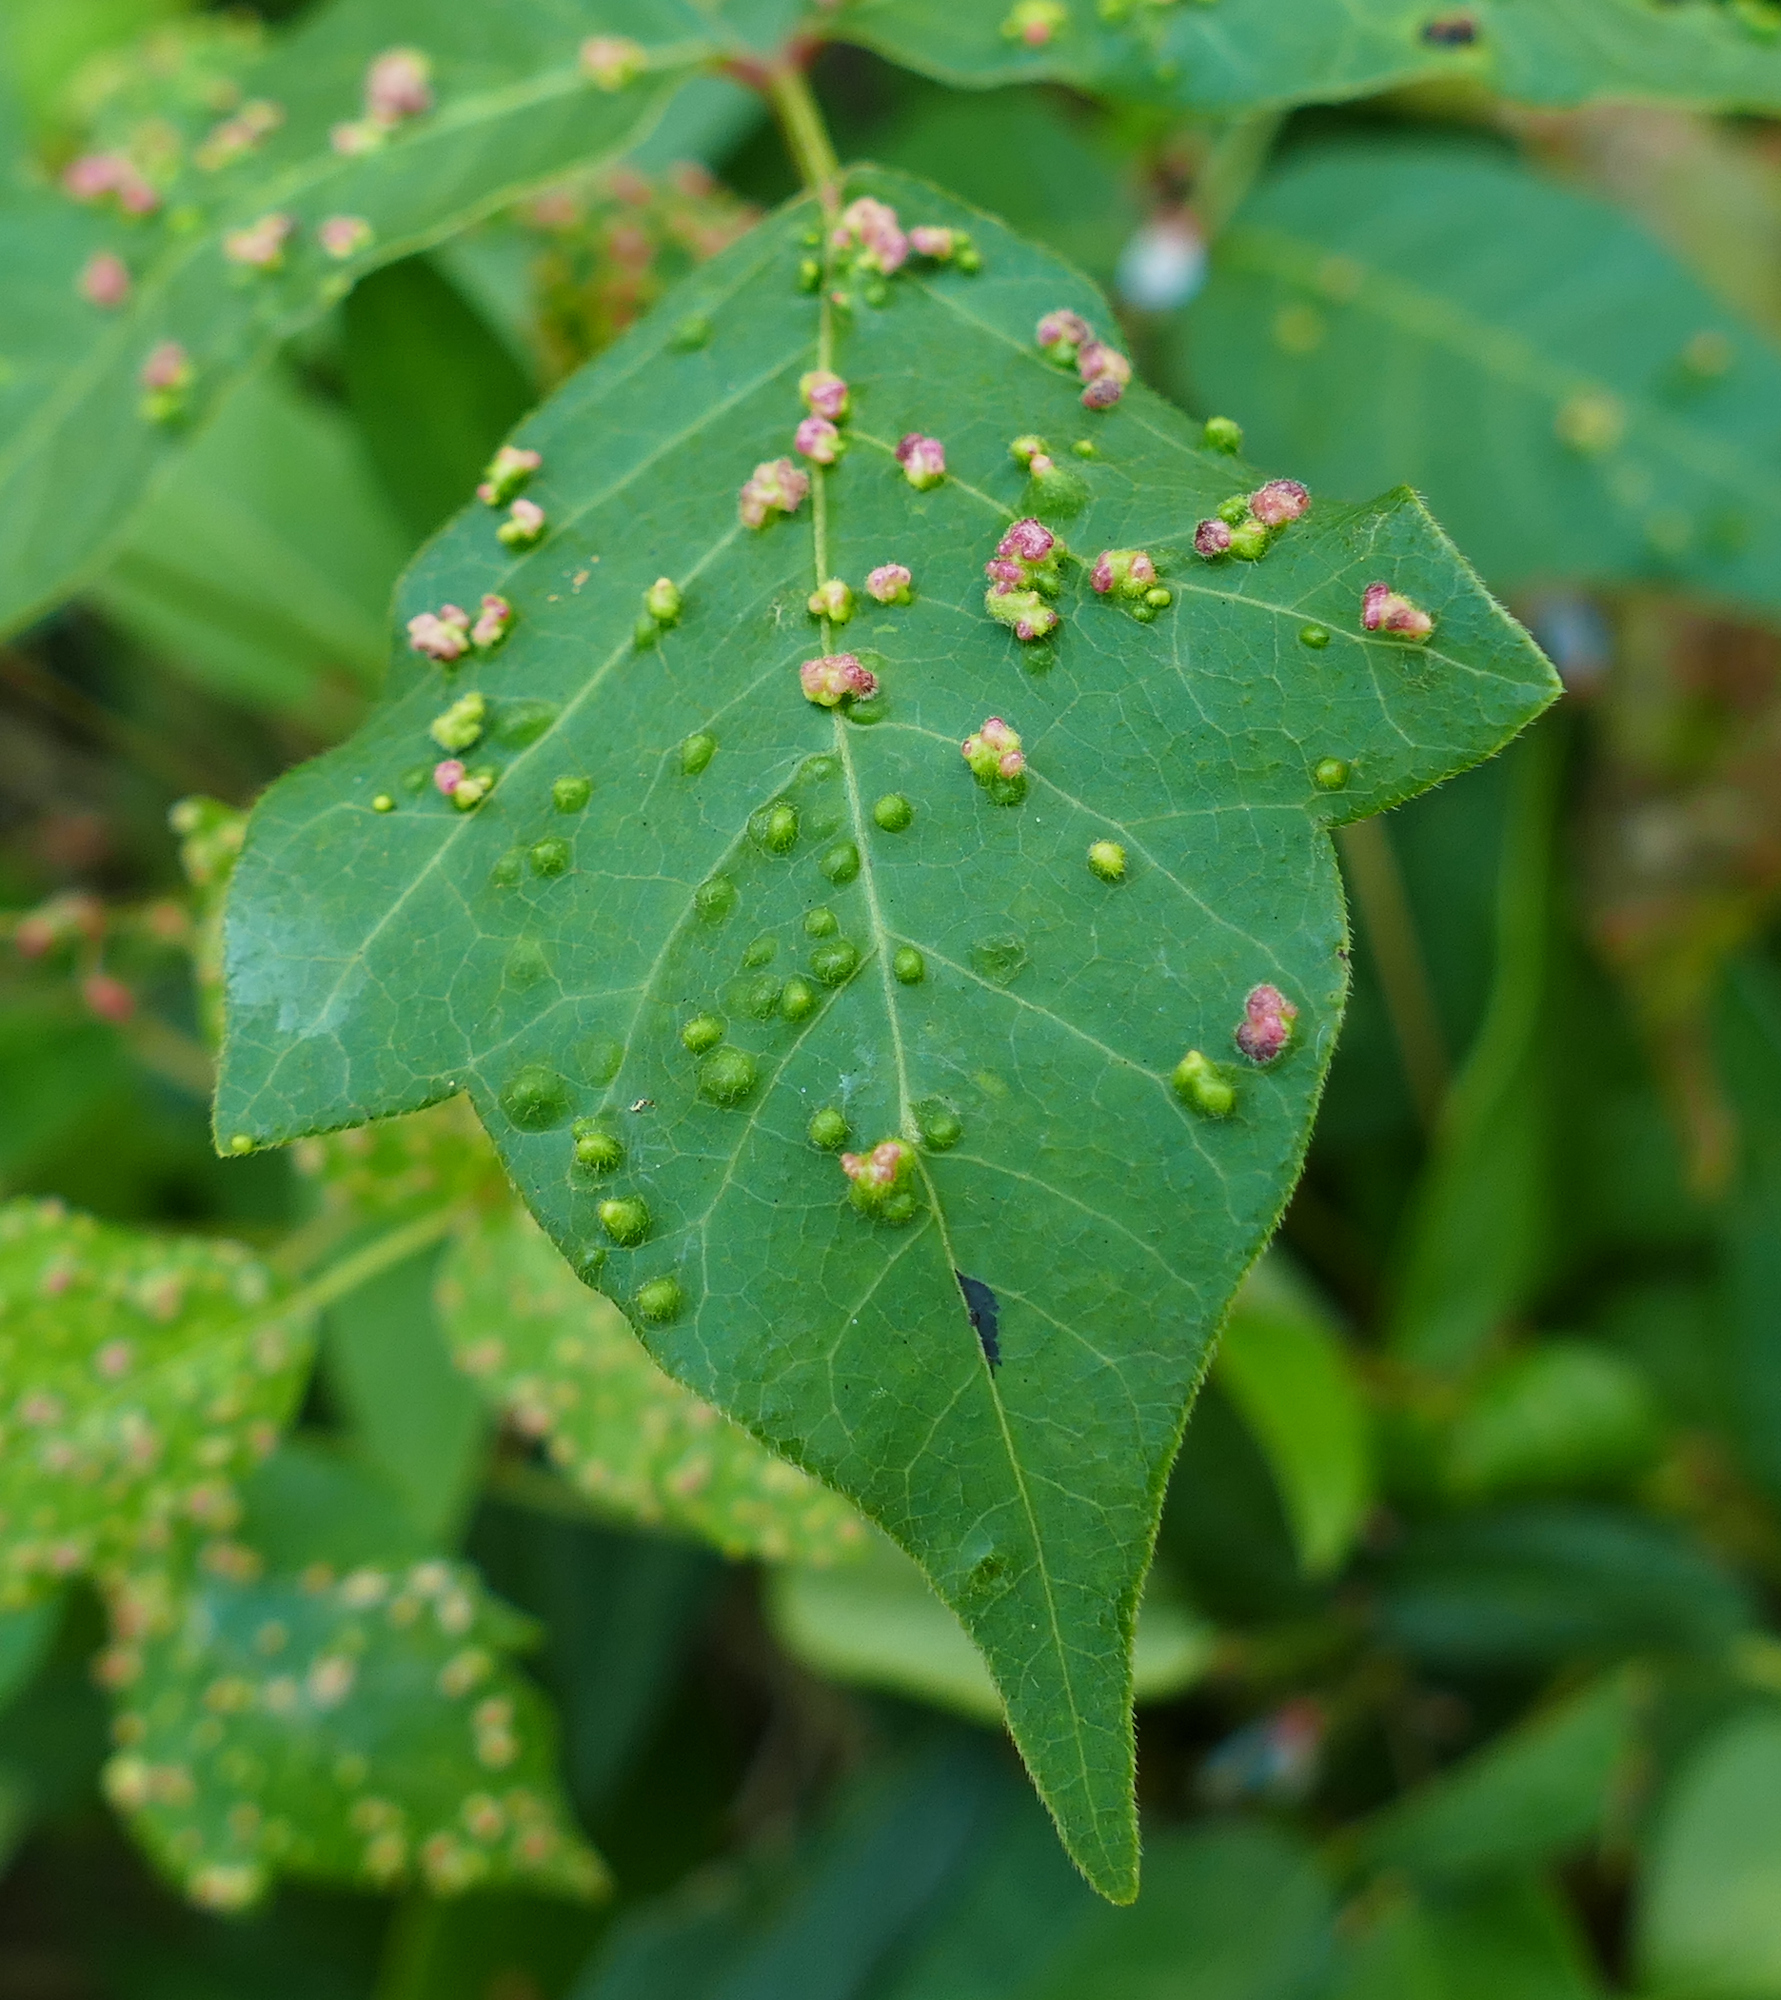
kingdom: Animalia
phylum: Arthropoda
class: Arachnida
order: Trombidiformes
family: Eriophyidae
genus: Aculops
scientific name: Aculops
